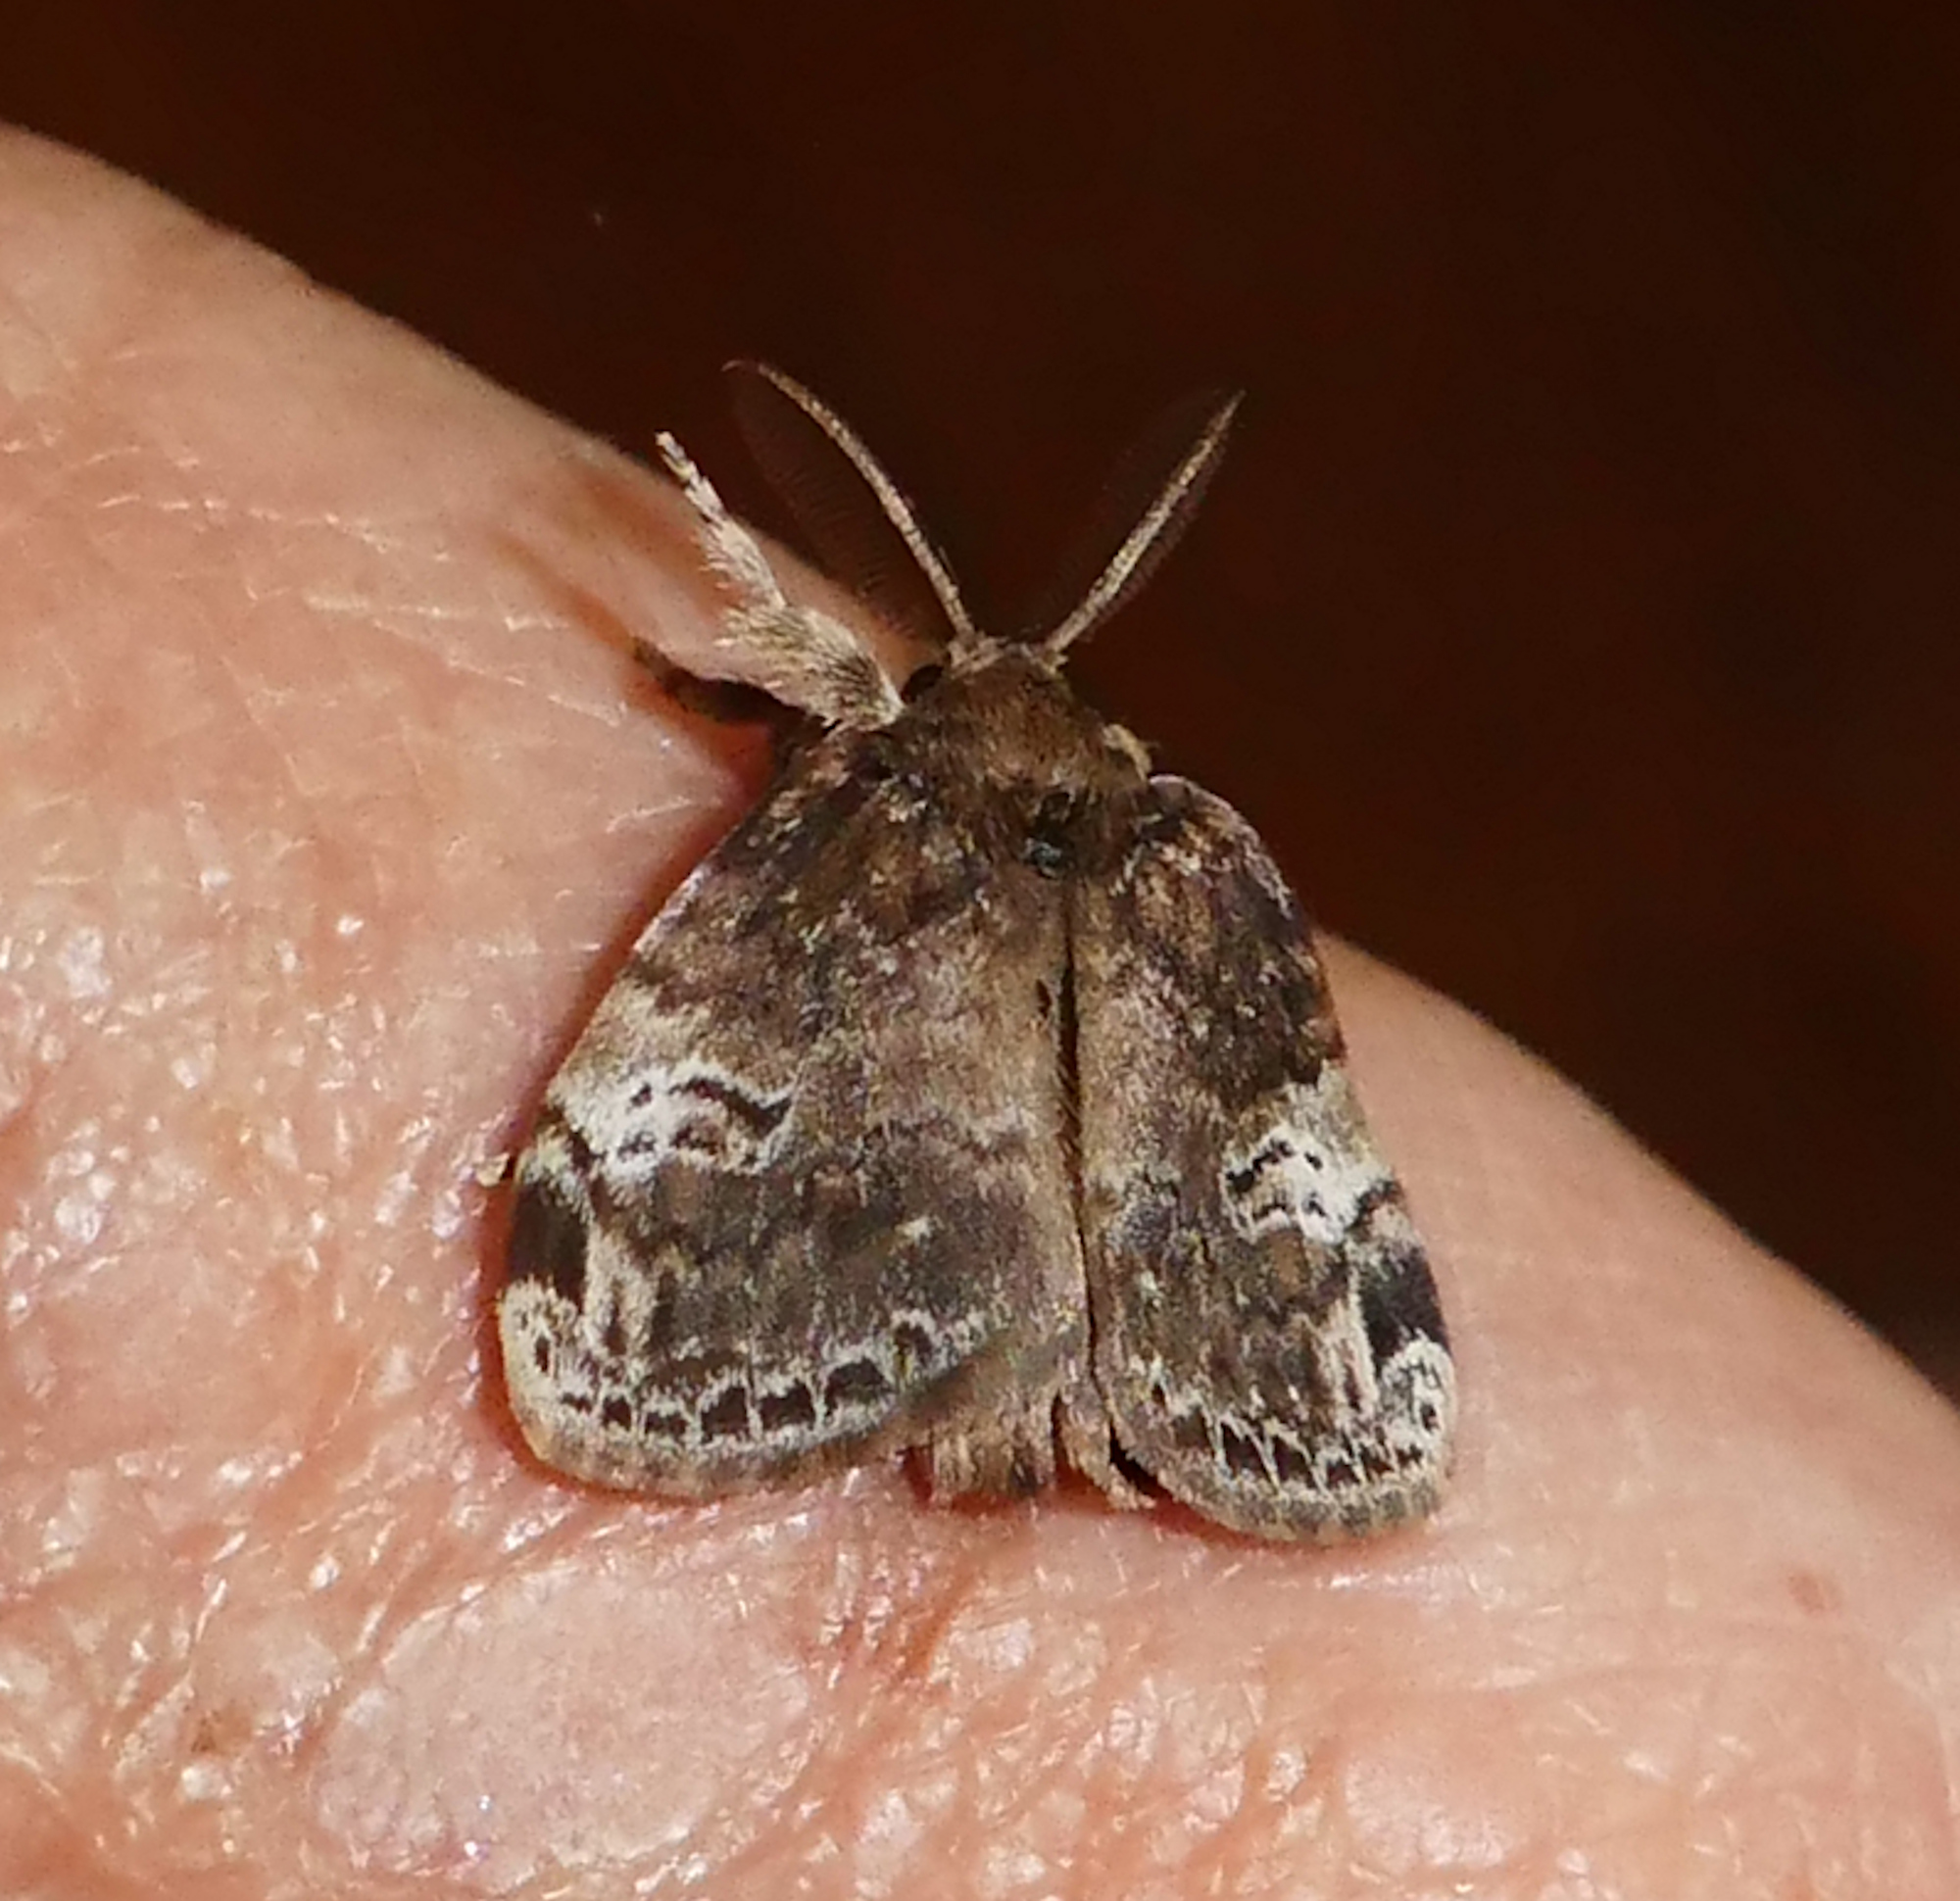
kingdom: Animalia
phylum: Arthropoda
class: Insecta
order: Lepidoptera
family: Erebidae
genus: Orgyia
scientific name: Orgyia detrita
